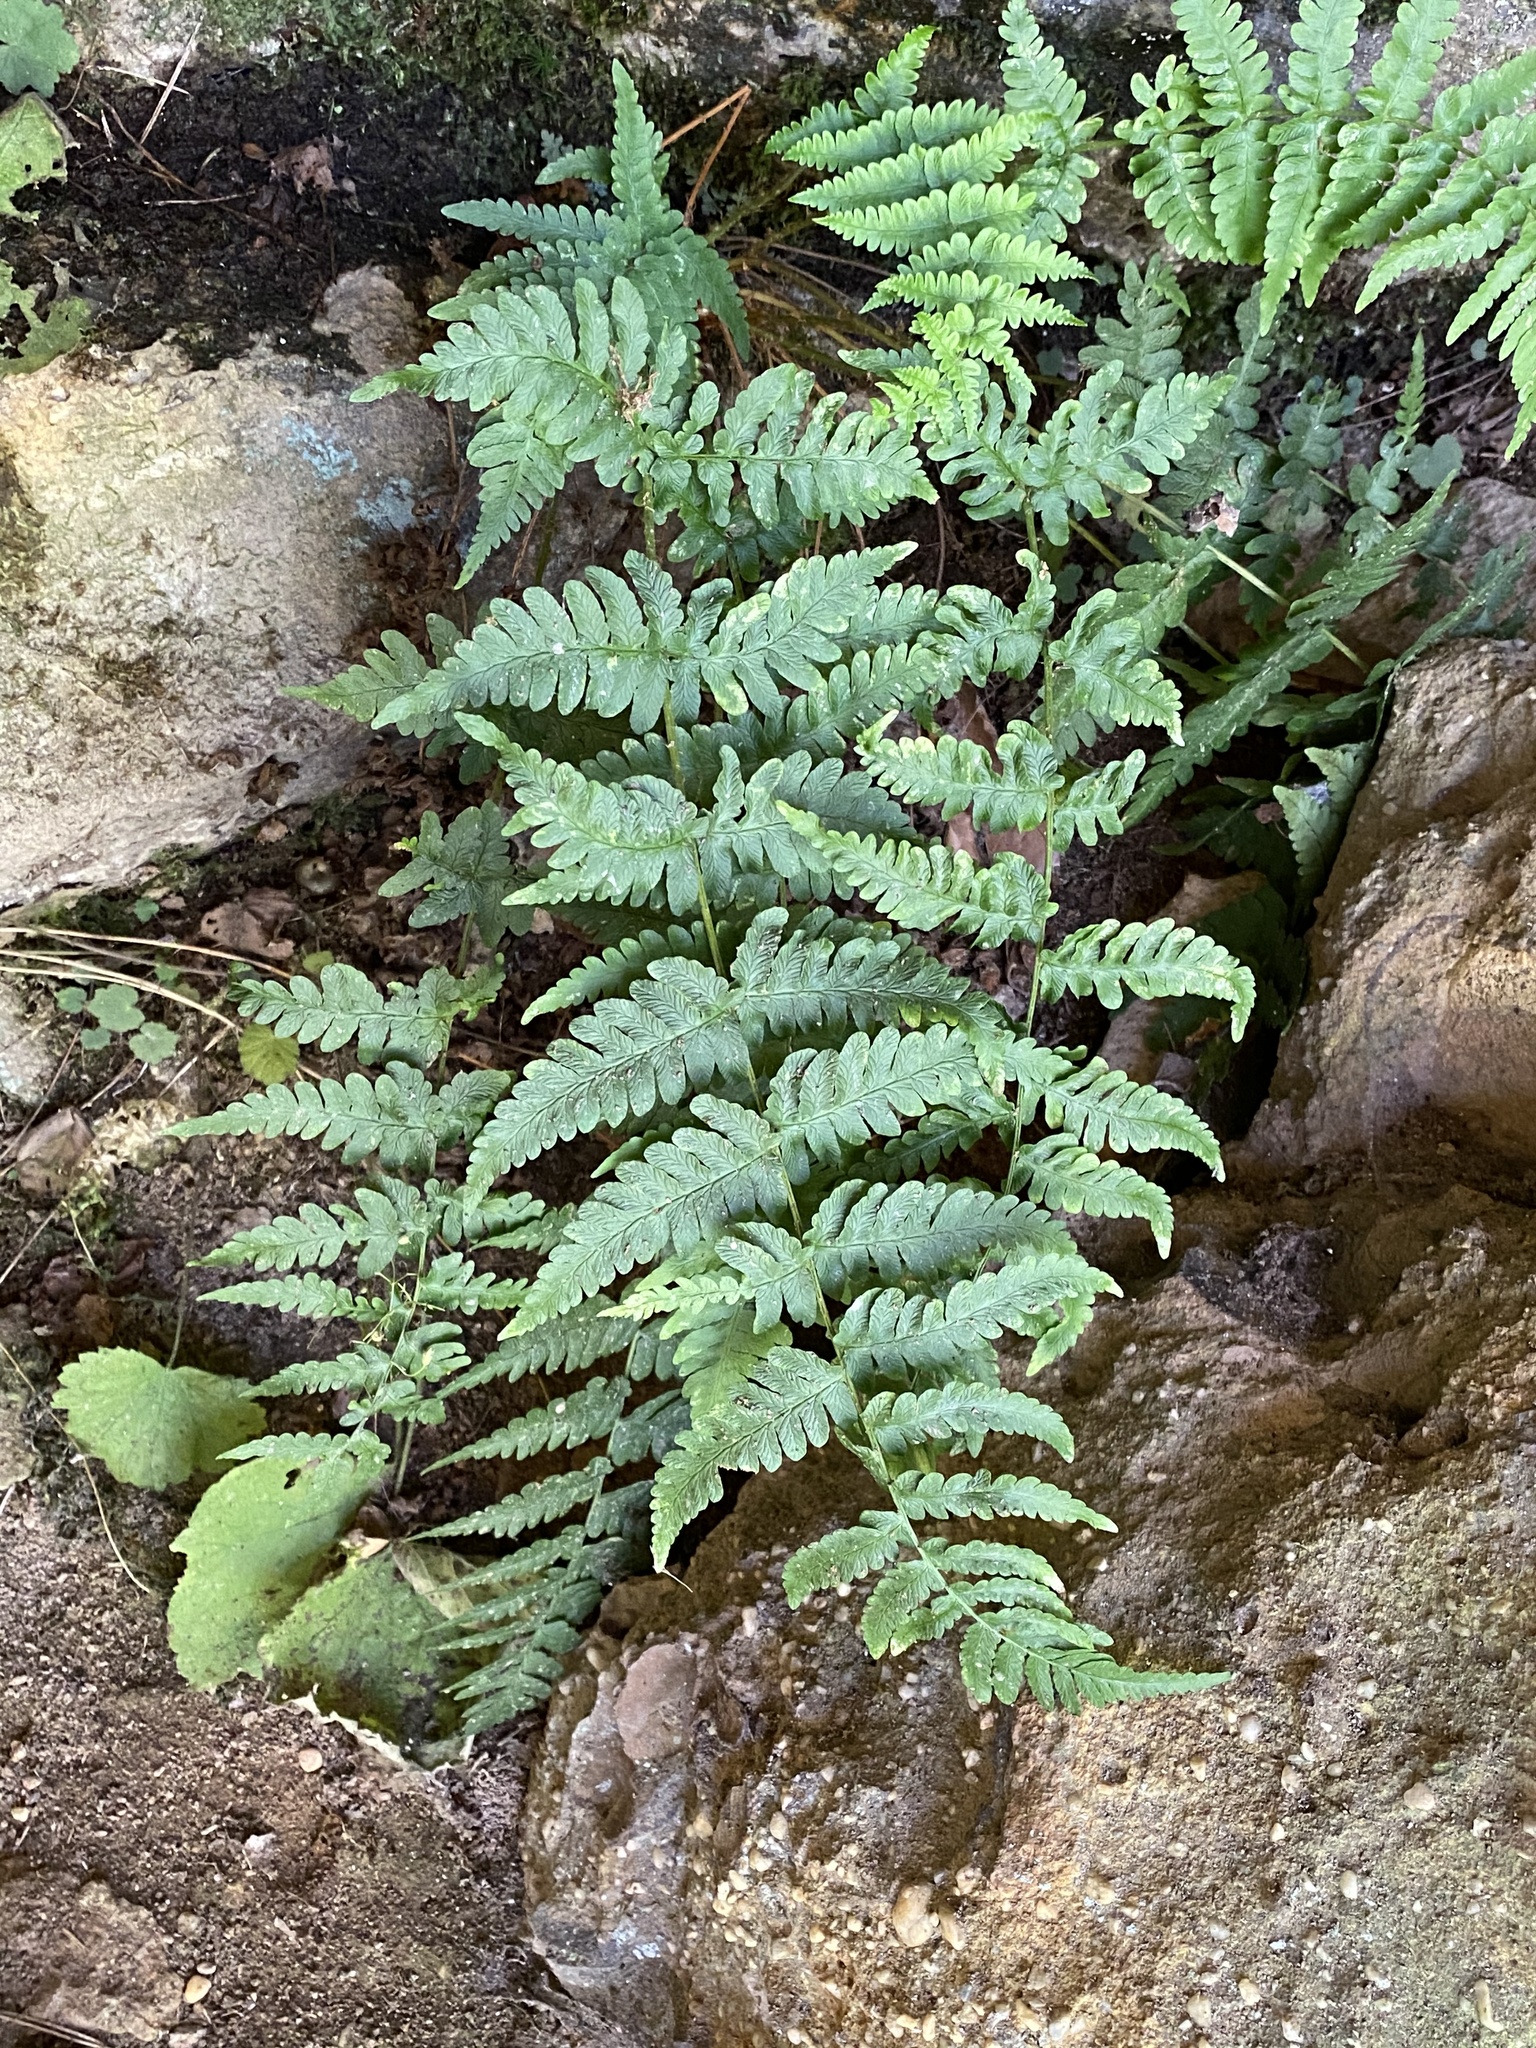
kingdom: Plantae
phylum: Tracheophyta
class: Polypodiopsida
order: Polypodiales
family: Dryopteridaceae
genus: Dryopteris
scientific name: Dryopteris marginalis
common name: Marginal wood fern
